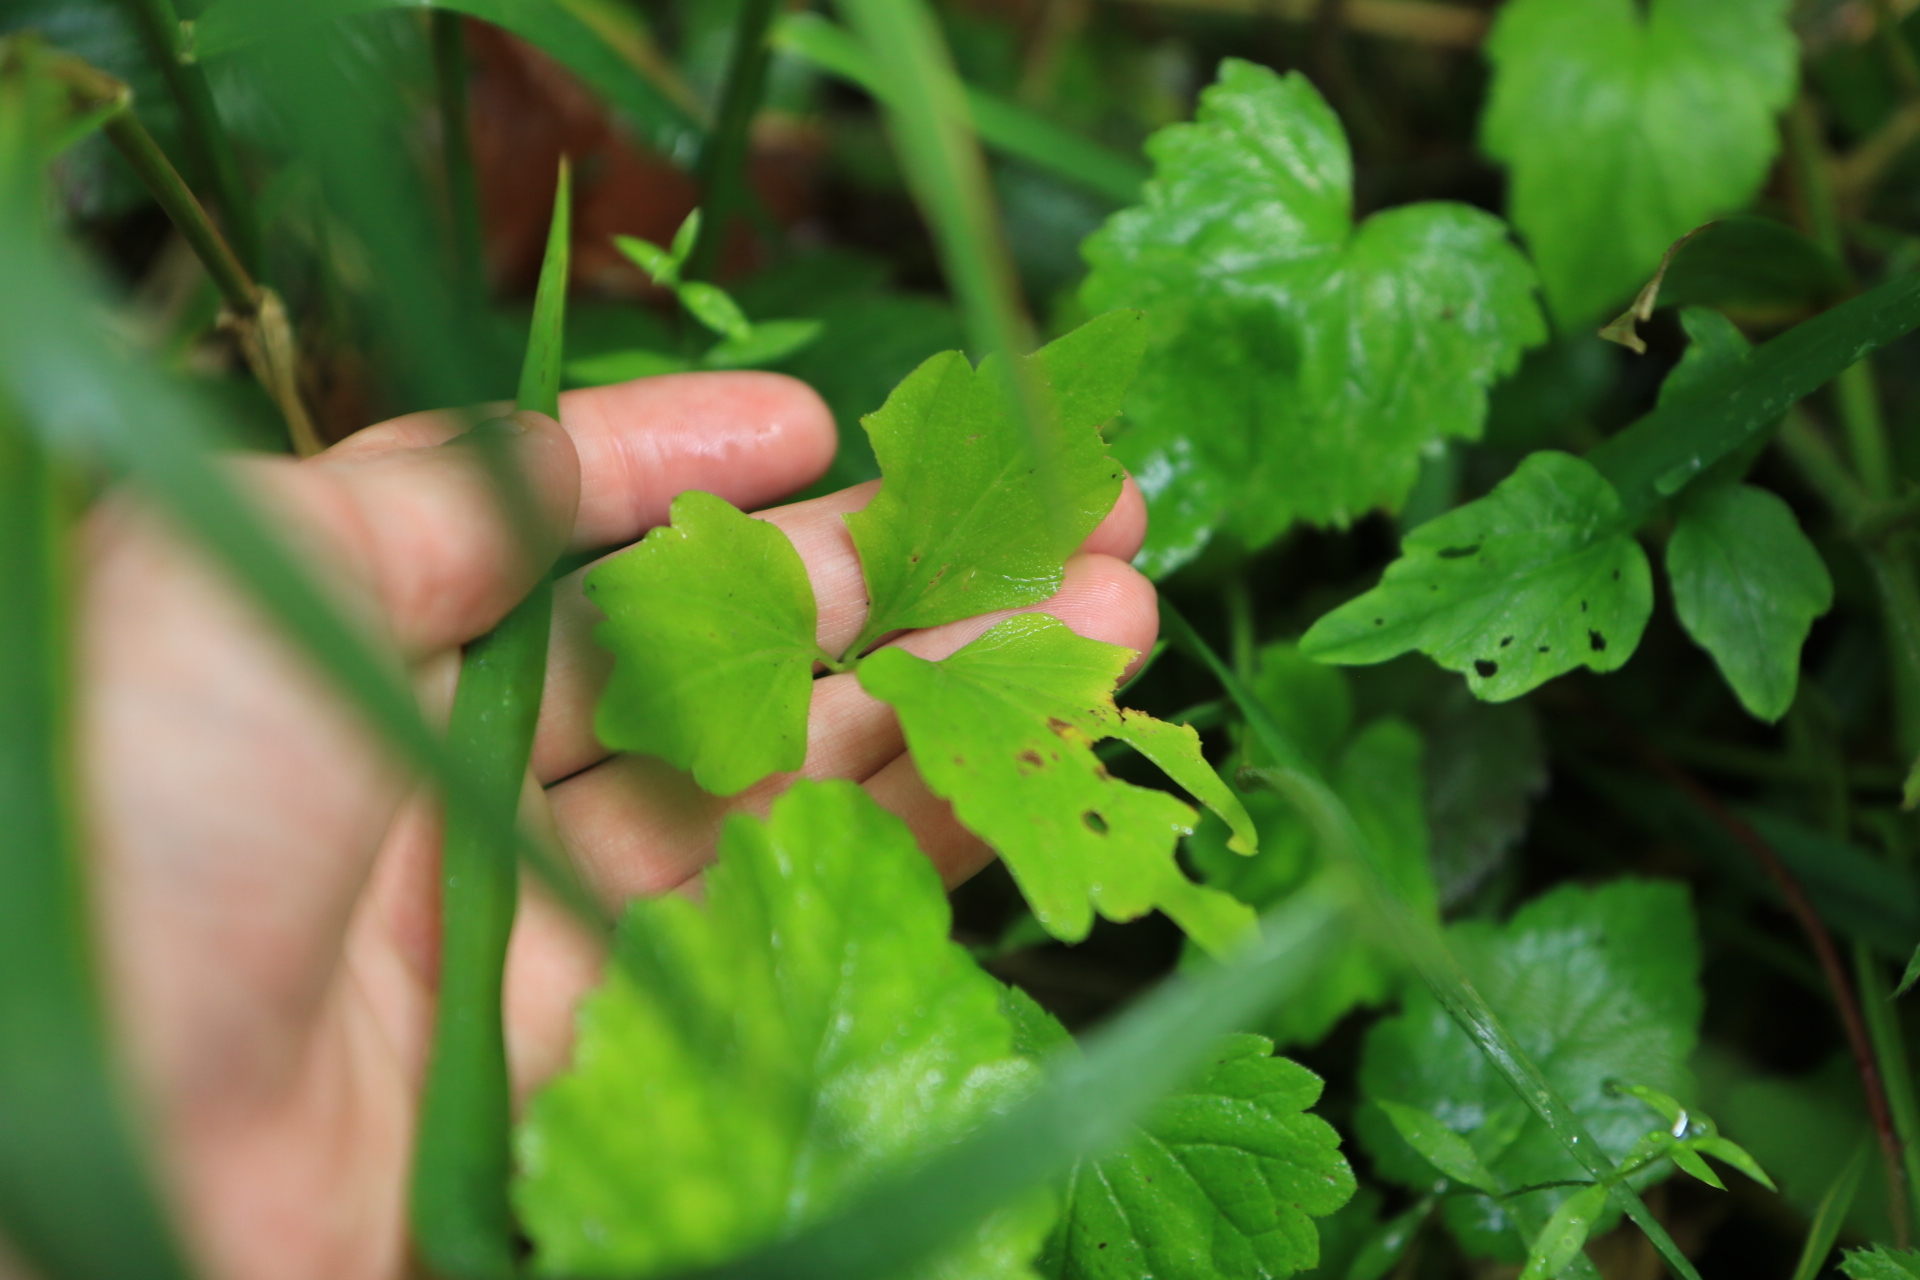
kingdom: Plantae
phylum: Tracheophyta
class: Magnoliopsida
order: Brassicales
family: Brassicaceae
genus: Cardamine
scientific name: Cardamine angulata
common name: Angled bittercress
